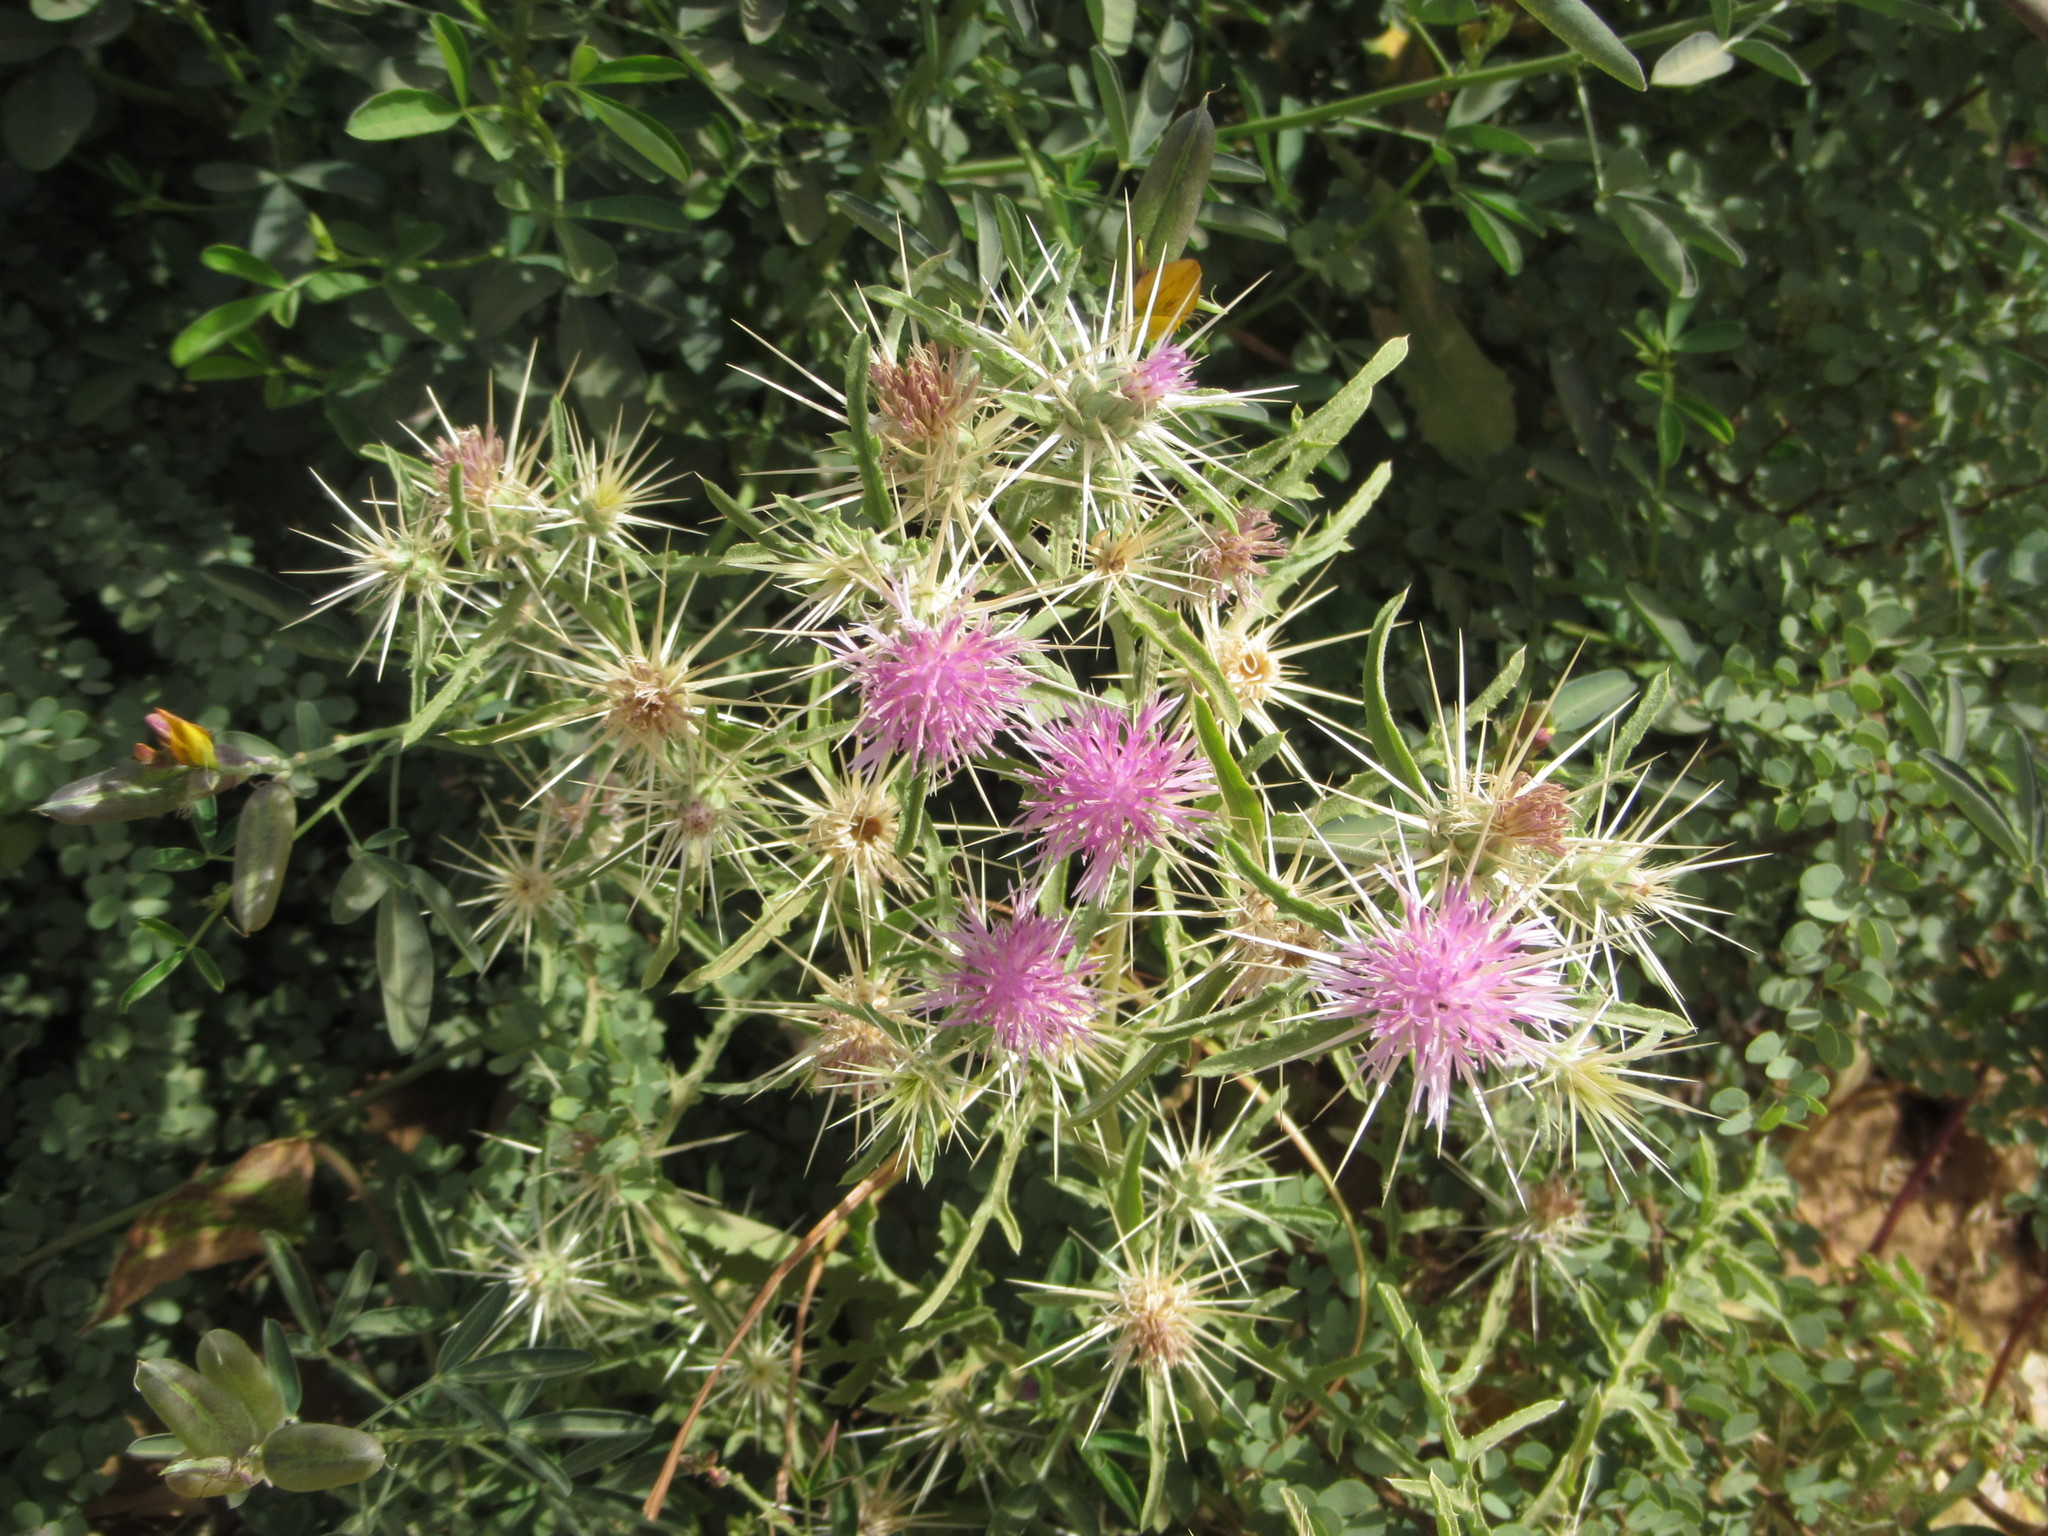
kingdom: Plantae
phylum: Tracheophyta
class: Magnoliopsida
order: Asterales
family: Asteraceae
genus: Centaurea
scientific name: Centaurea senegalensis
